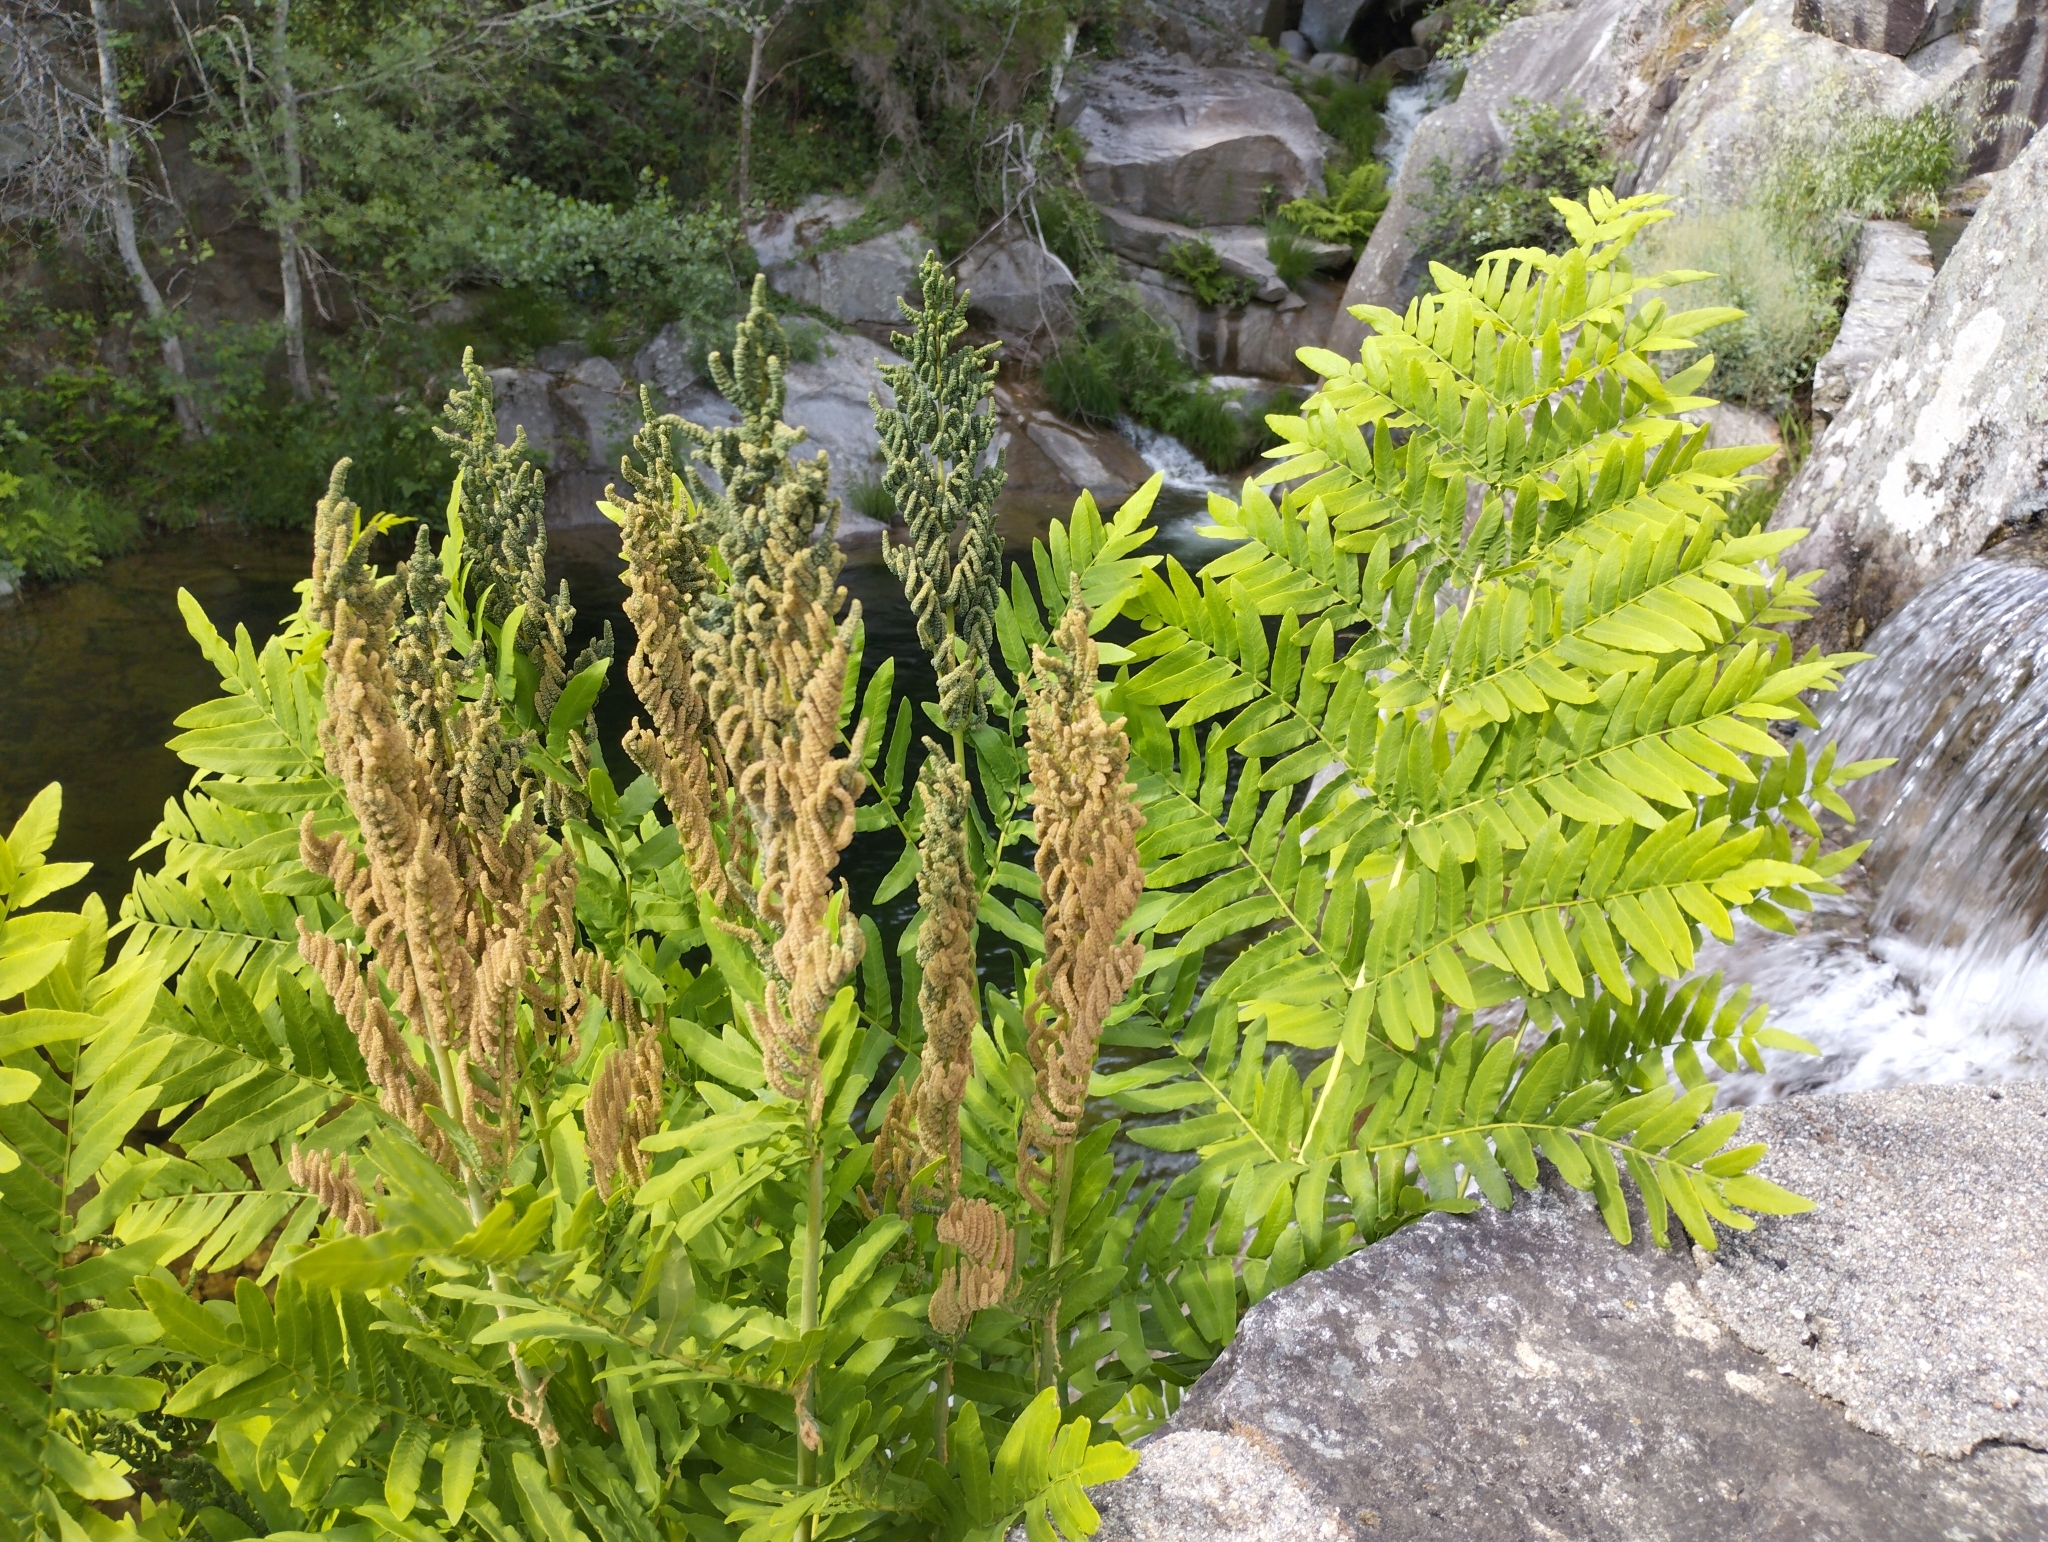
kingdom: Plantae
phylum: Tracheophyta
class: Polypodiopsida
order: Osmundales
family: Osmundaceae
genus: Osmunda
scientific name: Osmunda regalis
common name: Royal fern
